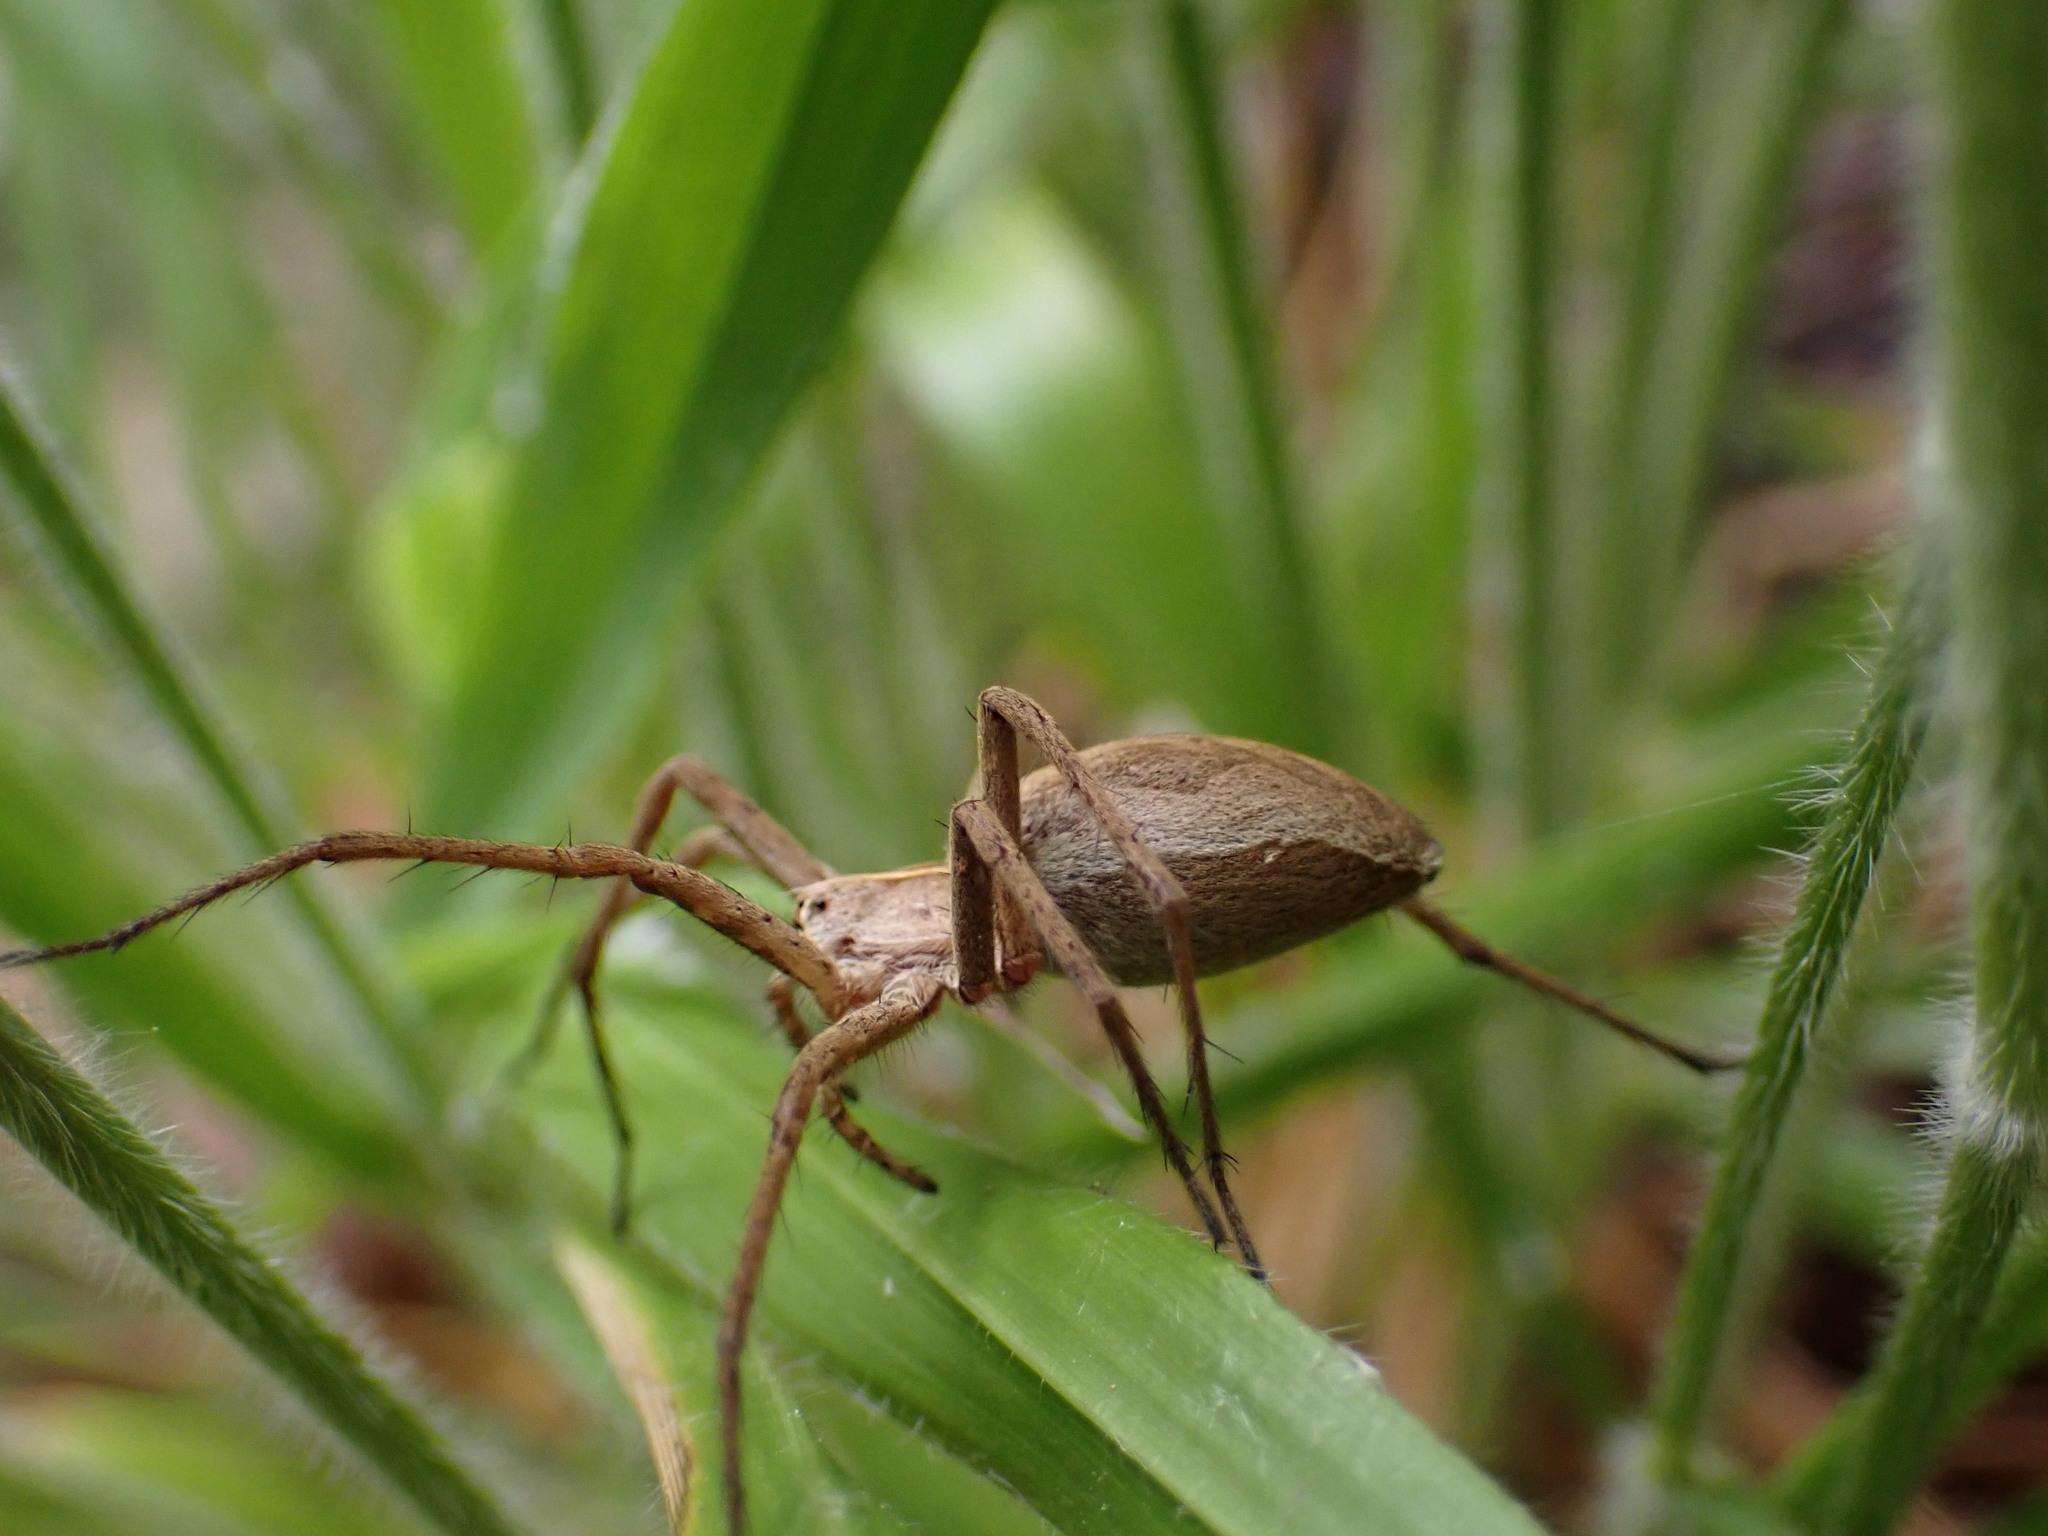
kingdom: Animalia
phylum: Arthropoda
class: Arachnida
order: Araneae
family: Pisauridae
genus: Pisaura
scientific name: Pisaura
